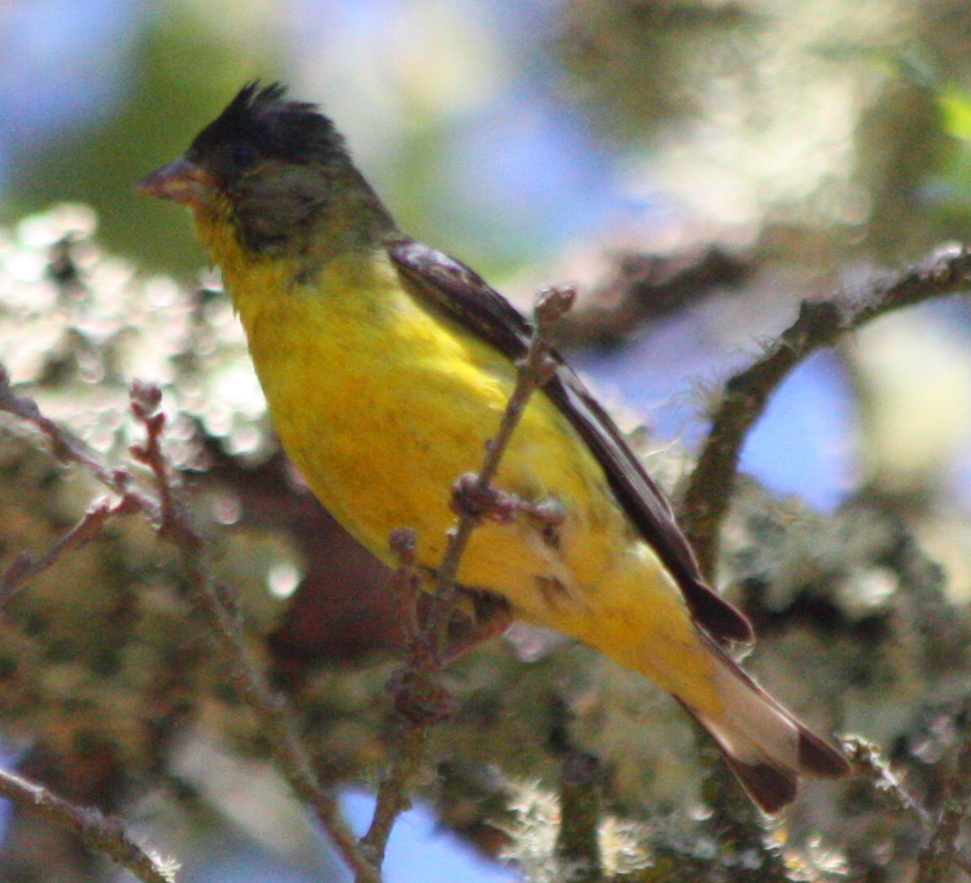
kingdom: Animalia
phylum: Chordata
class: Aves
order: Passeriformes
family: Fringillidae
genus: Spinus
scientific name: Spinus psaltria
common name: Lesser goldfinch
